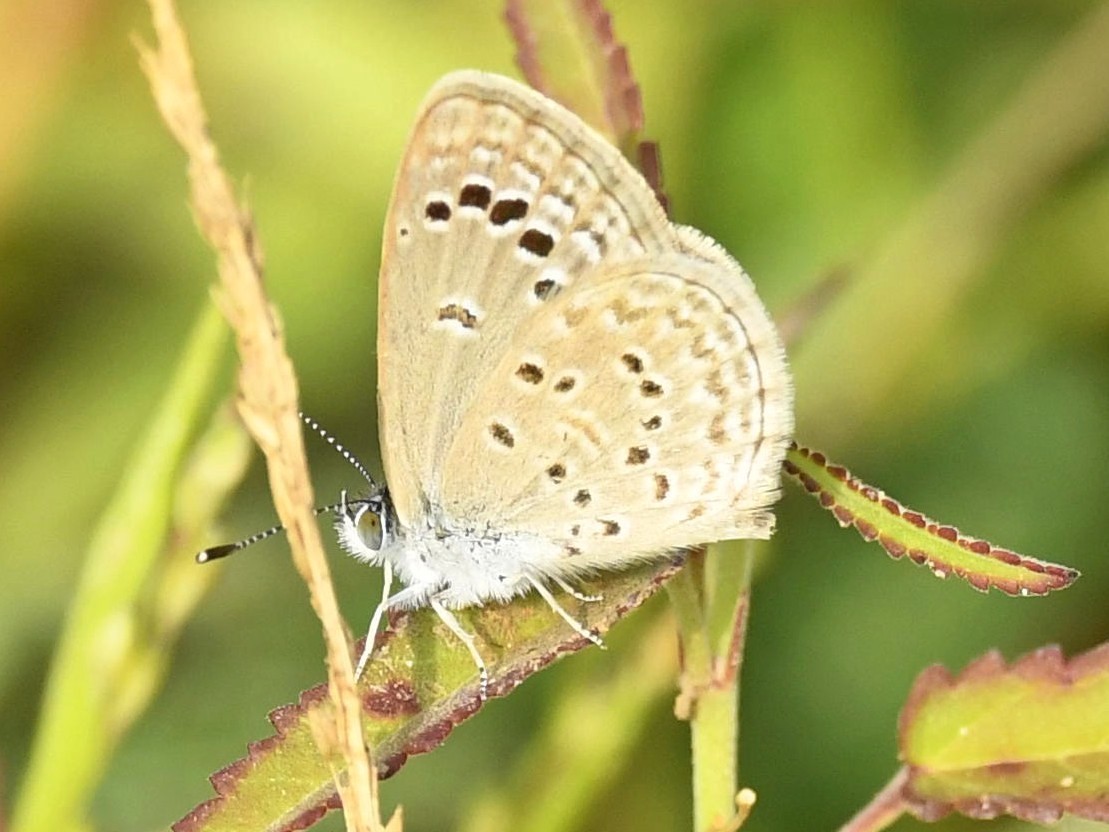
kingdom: Animalia
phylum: Arthropoda
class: Insecta
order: Lepidoptera
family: Lycaenidae
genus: Zizina
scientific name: Zizina otis
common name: Lesser grass blue
